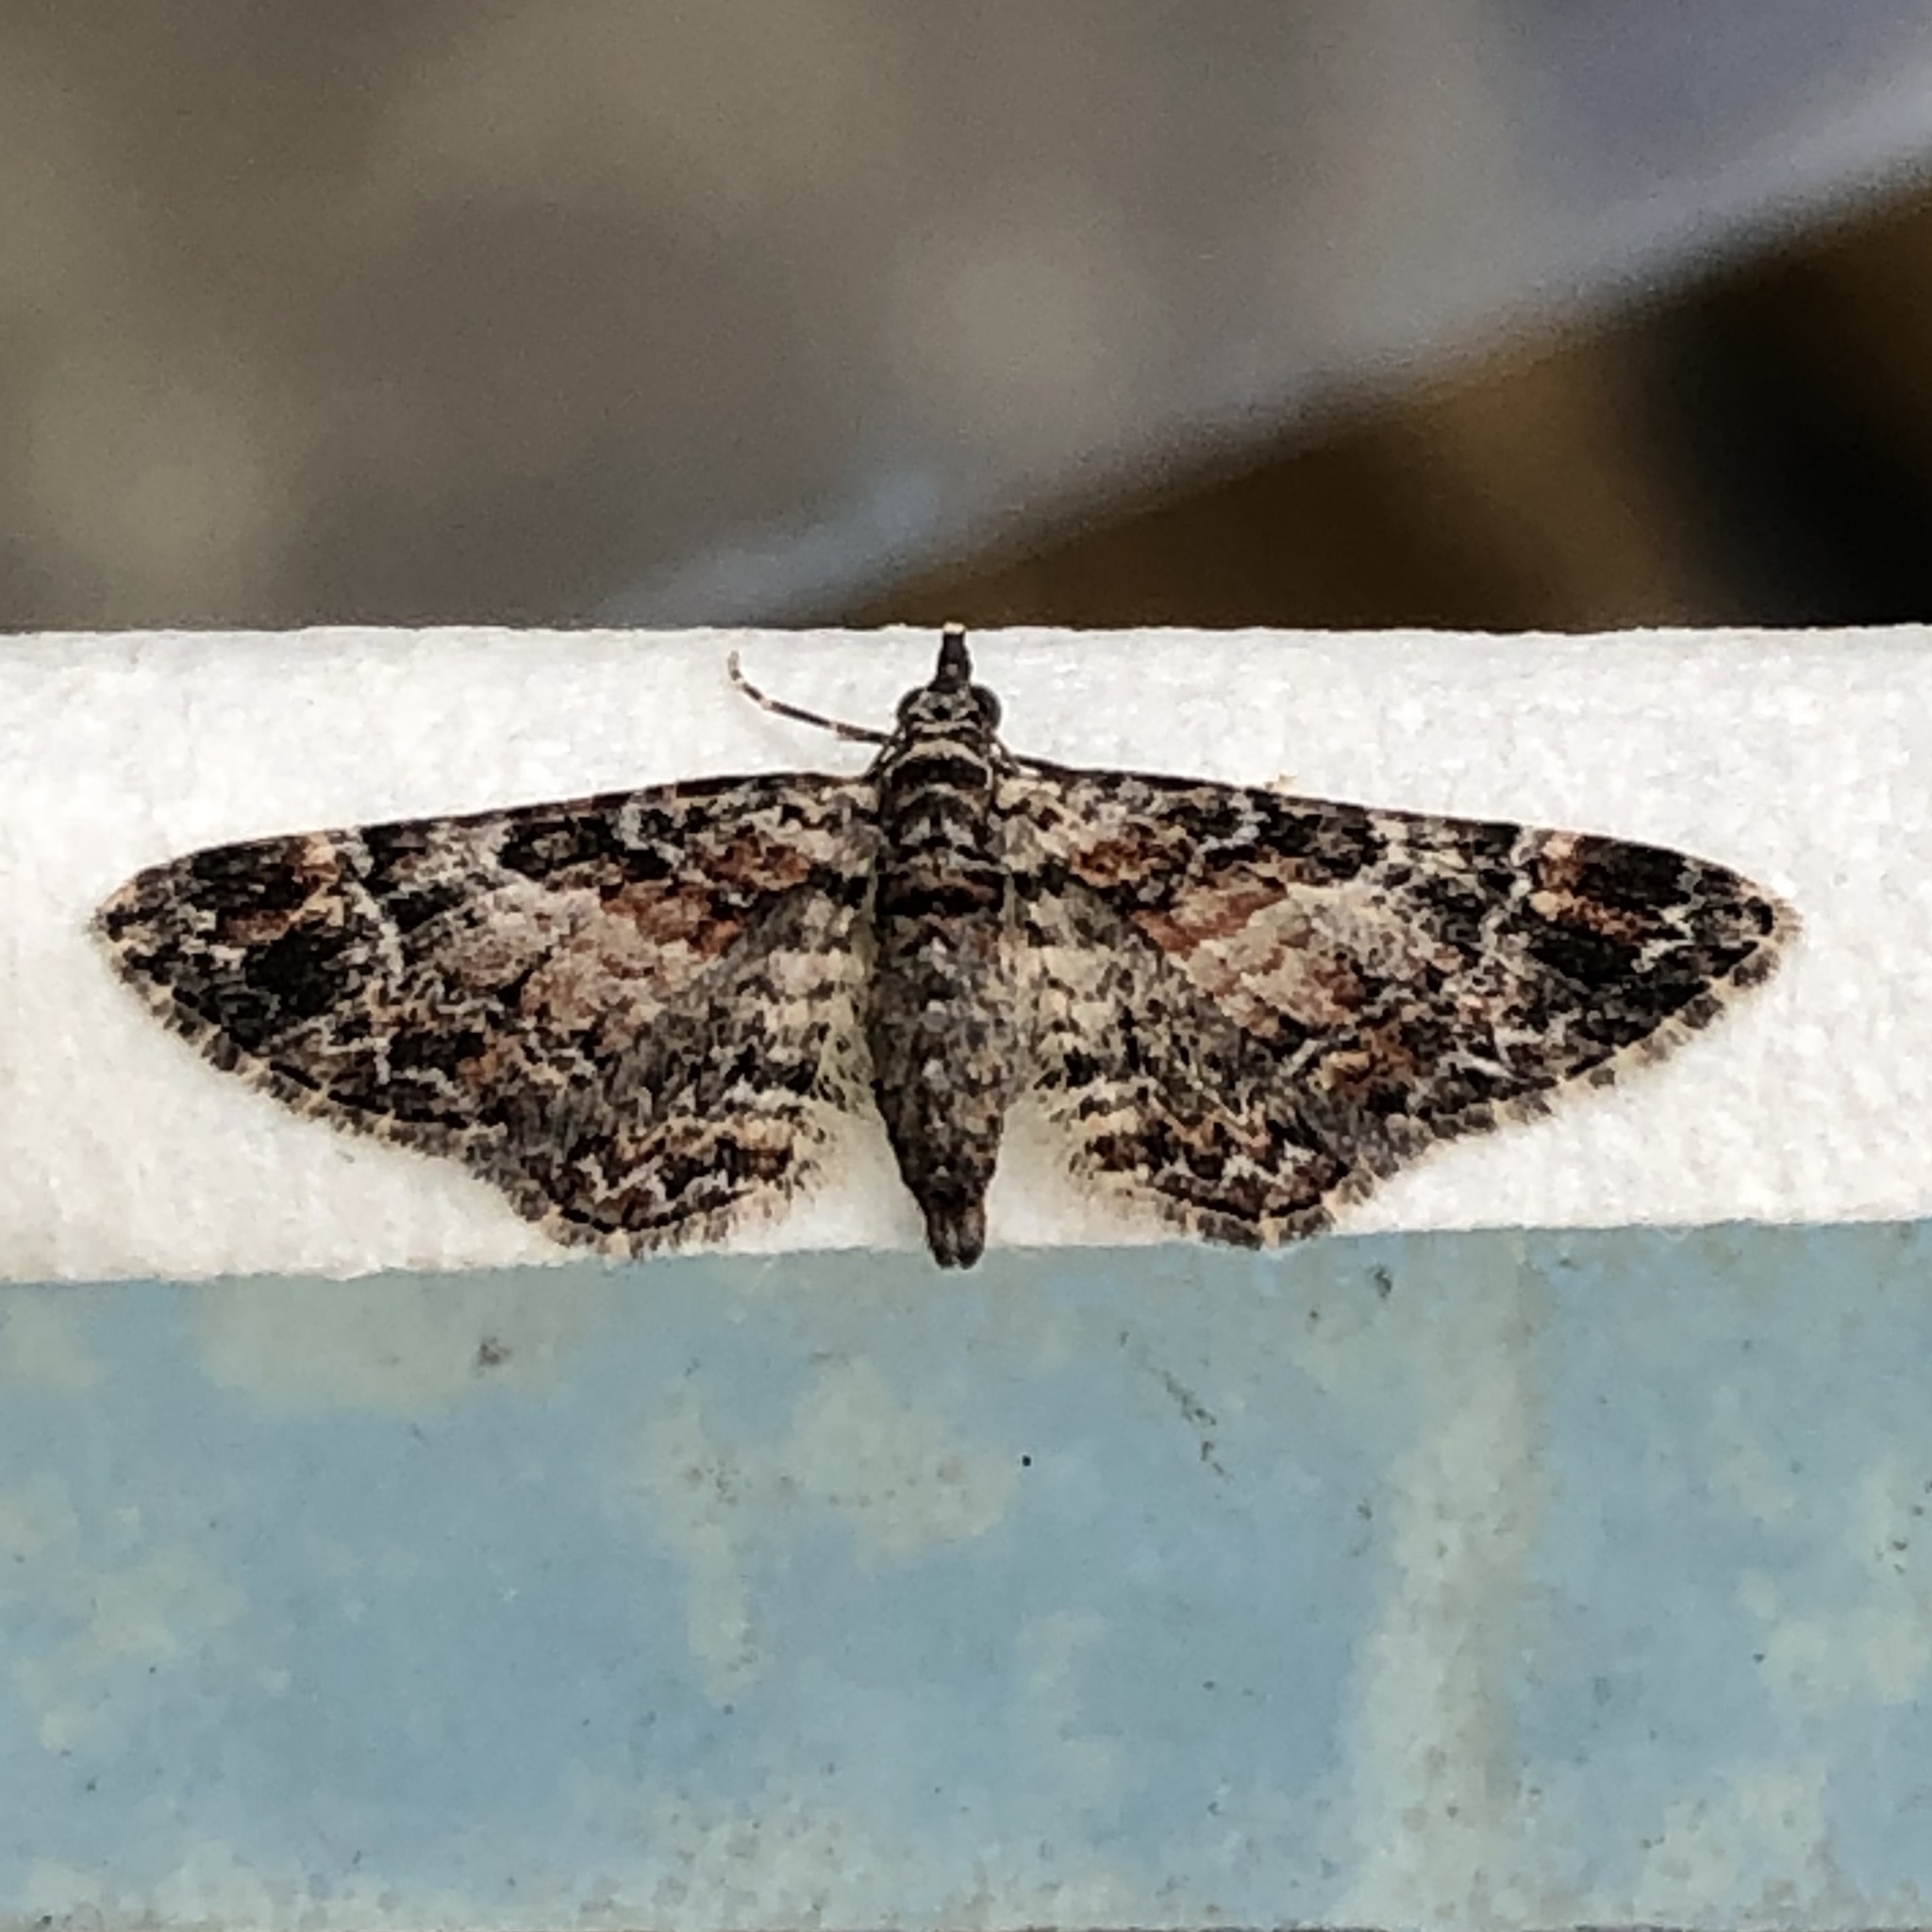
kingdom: Animalia
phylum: Arthropoda
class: Insecta
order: Lepidoptera
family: Geometridae
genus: Gymnoscelis
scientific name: Gymnoscelis rufifasciata
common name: Double-striped pug
